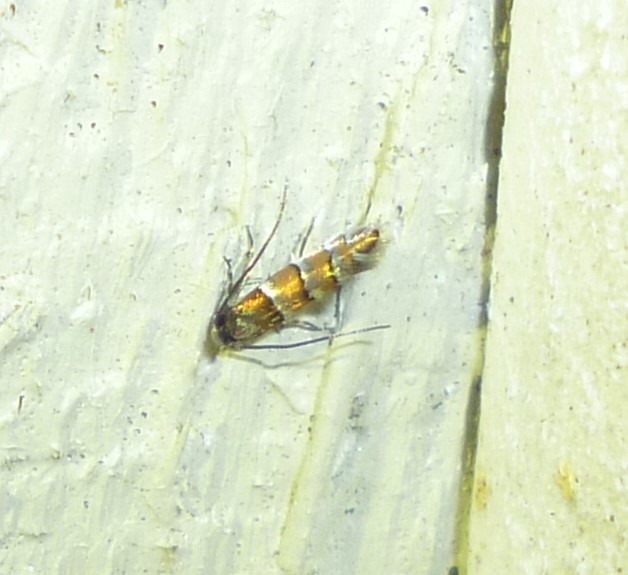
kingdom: Animalia
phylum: Arthropoda
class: Insecta
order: Lepidoptera
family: Gracillariidae
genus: Chrysaster
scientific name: Chrysaster ostensackenella
